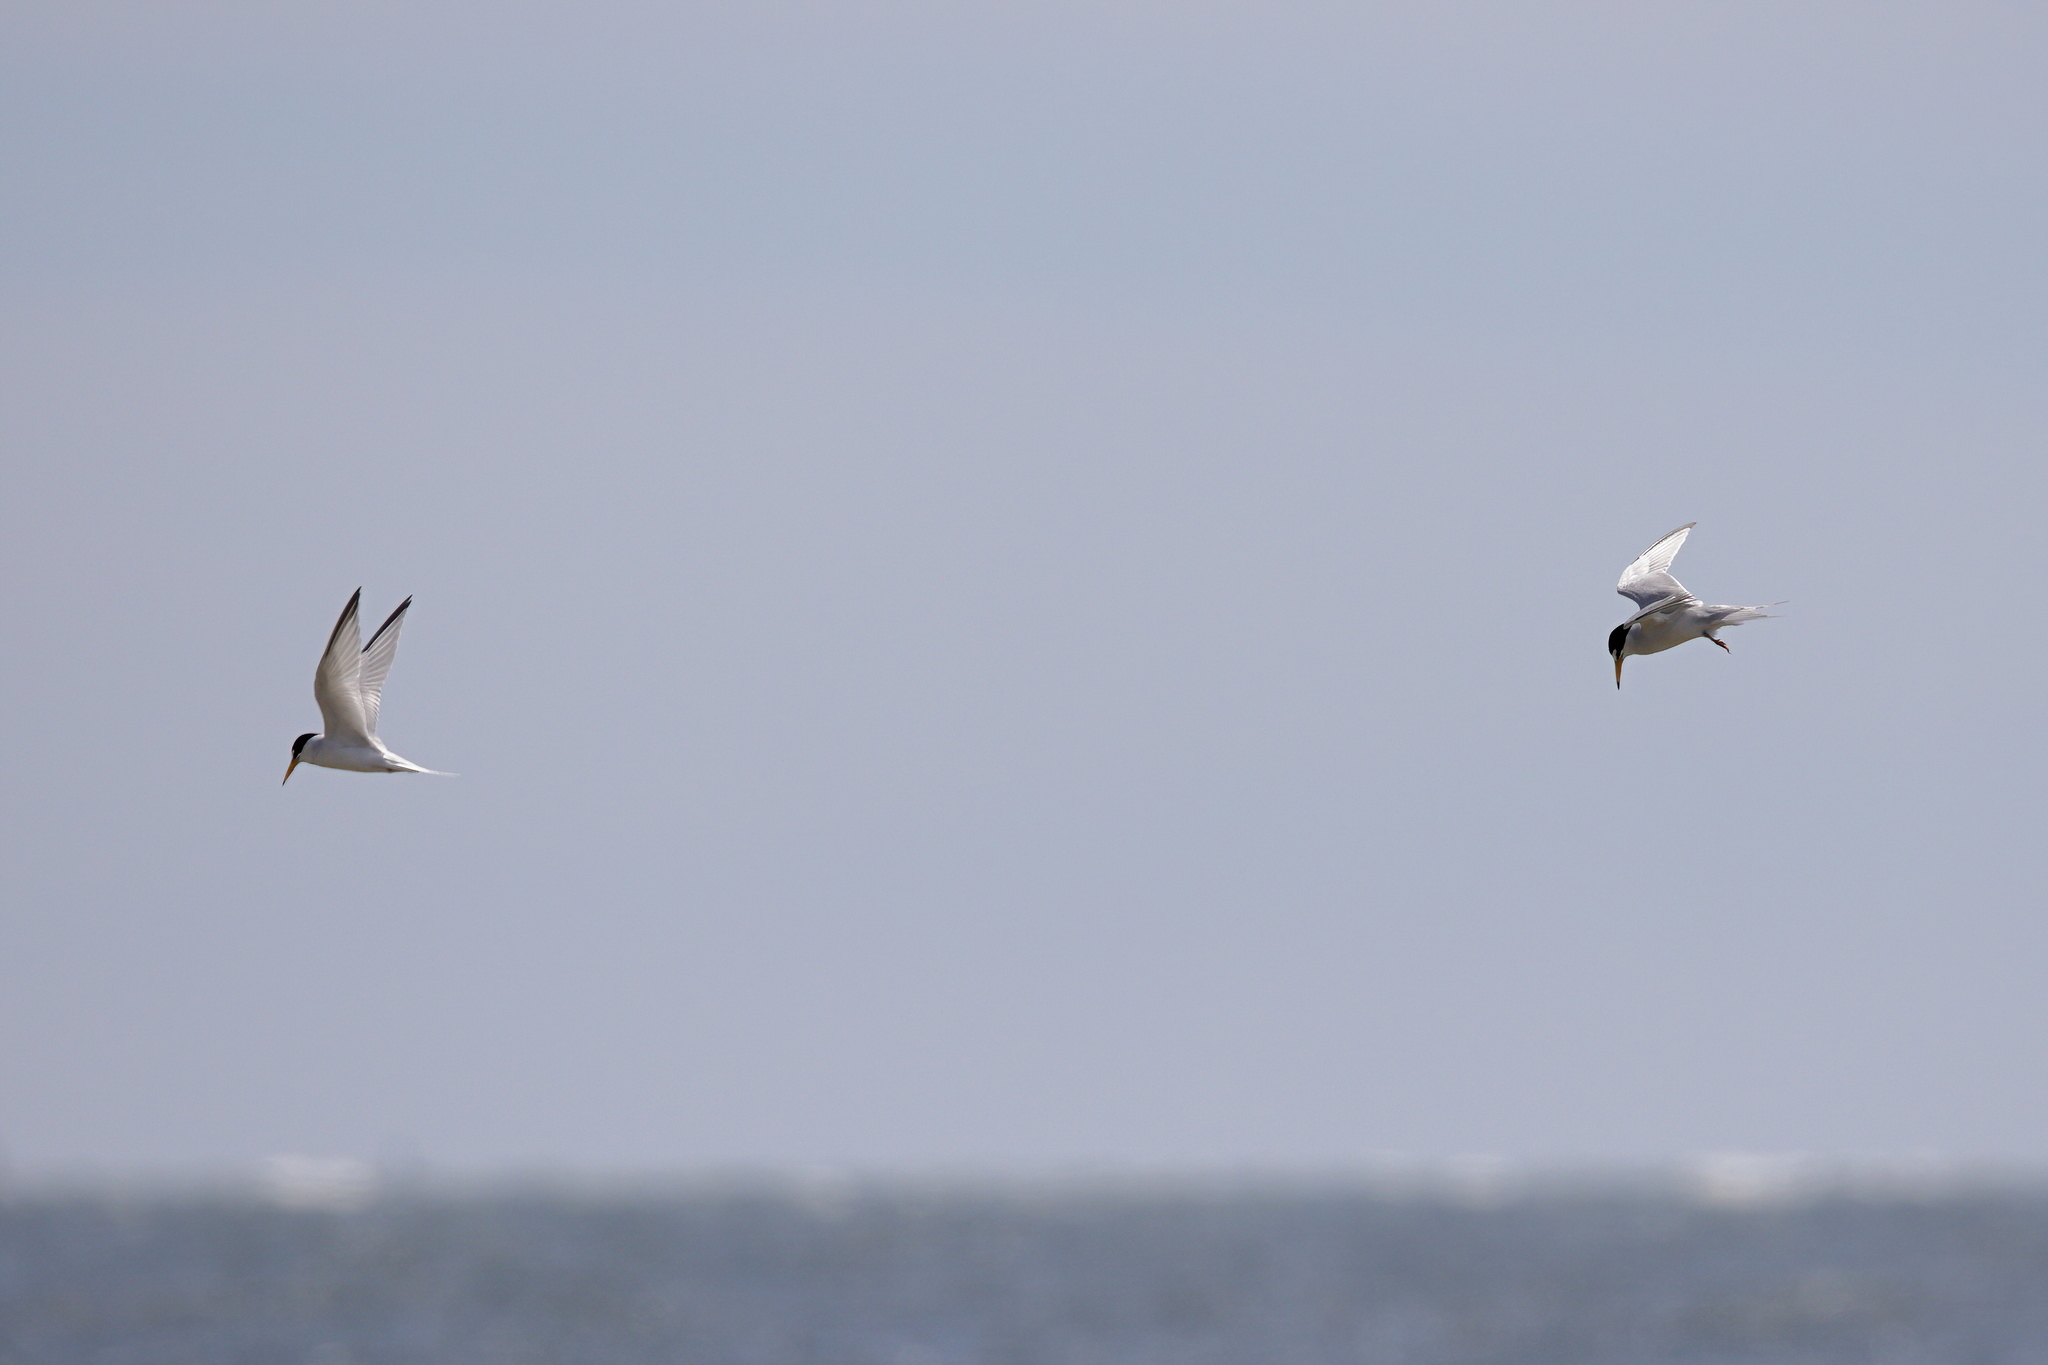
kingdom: Animalia
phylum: Chordata
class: Aves
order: Charadriiformes
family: Laridae
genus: Sternula
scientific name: Sternula antillarum
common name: Least tern
